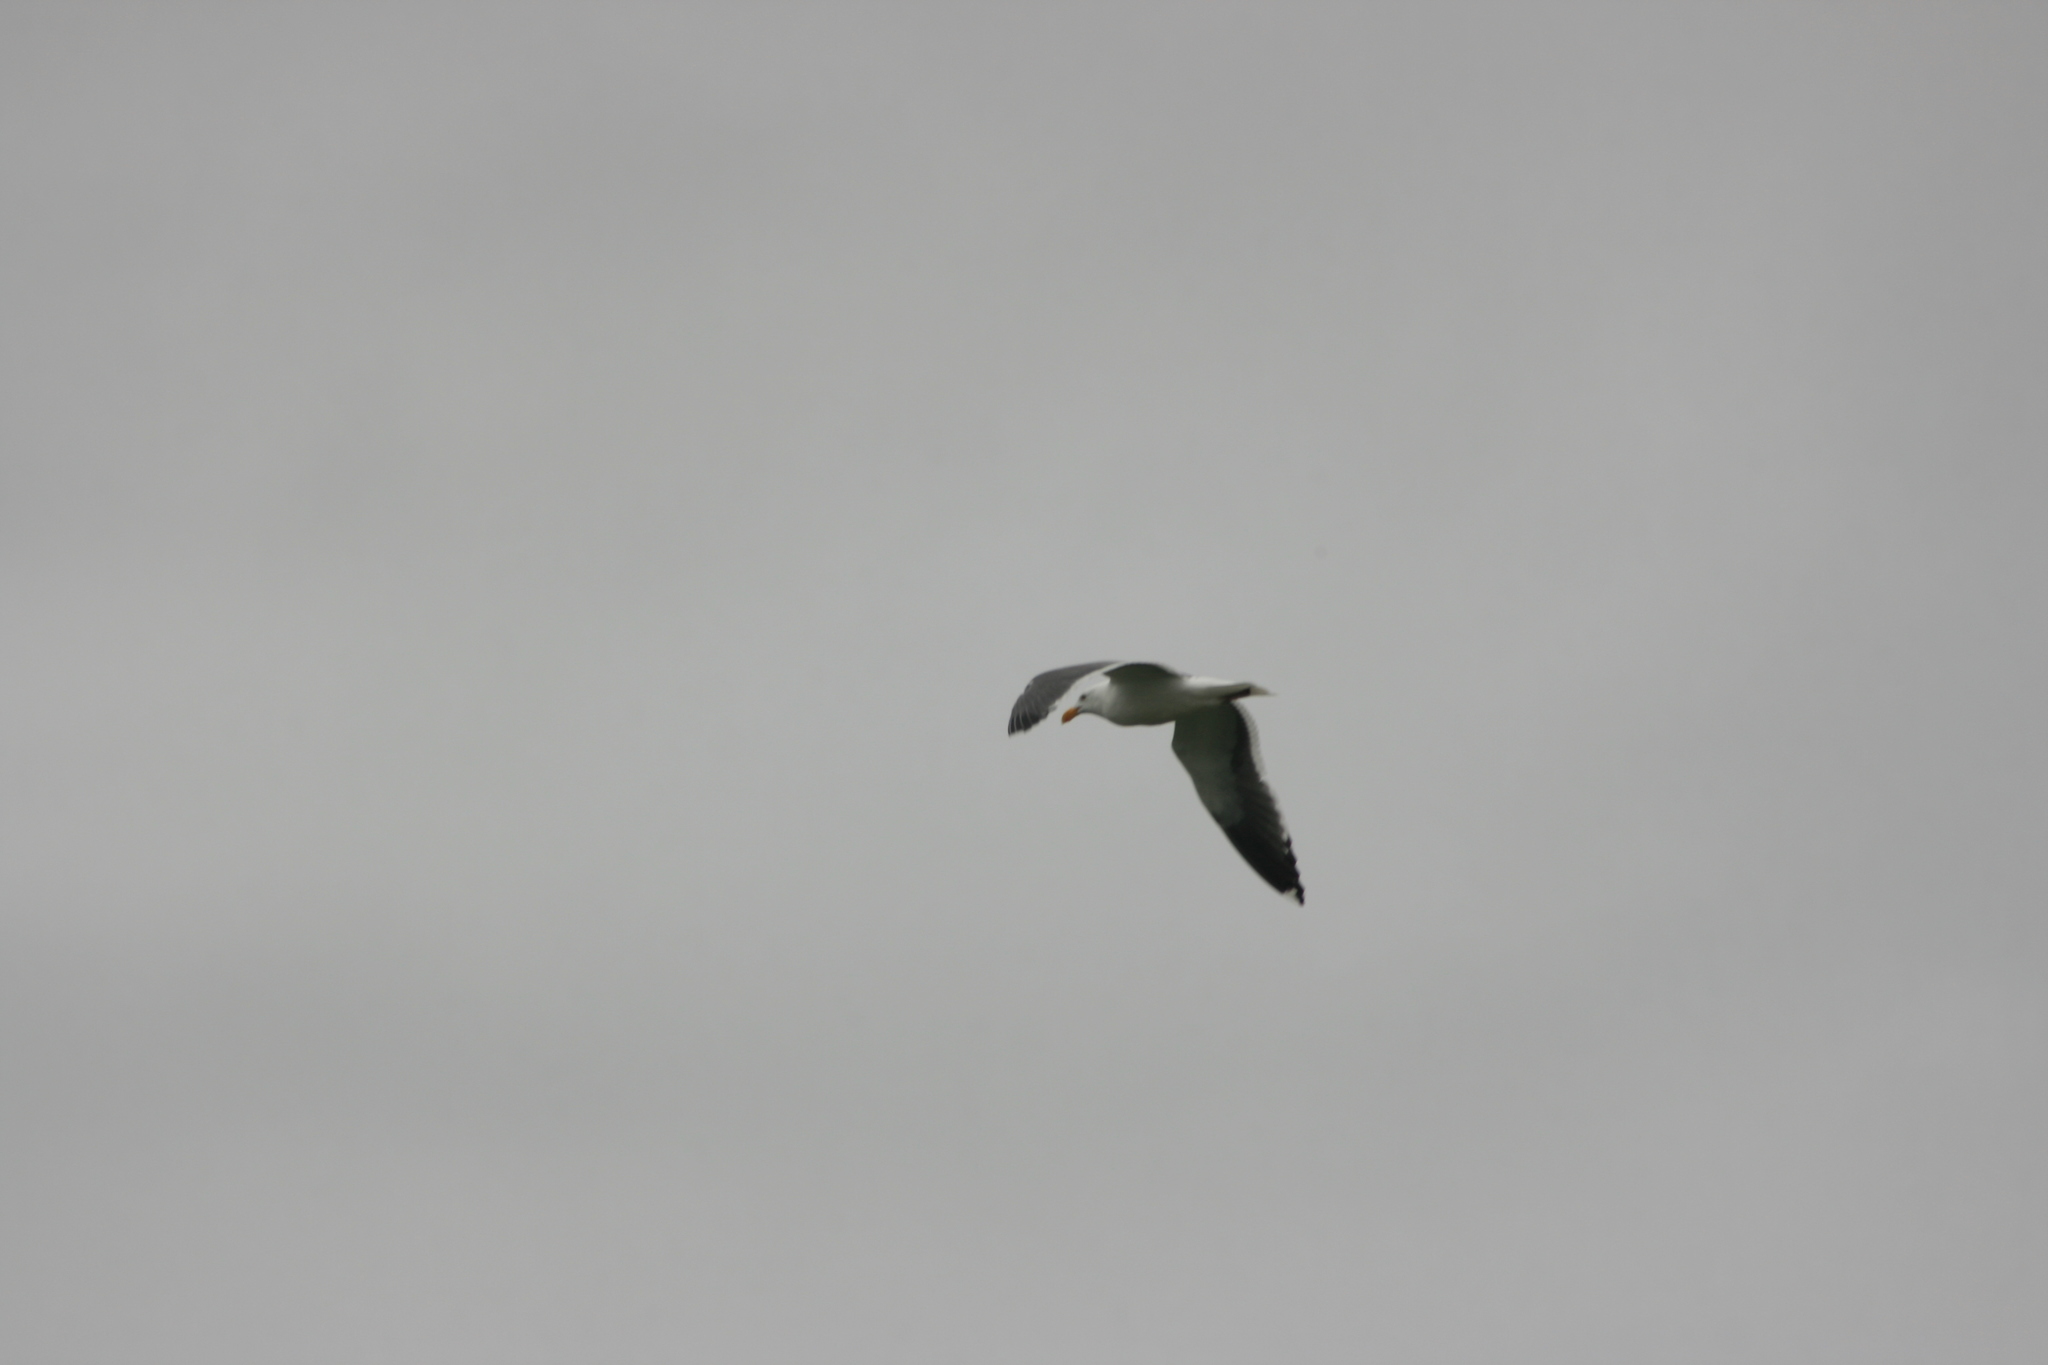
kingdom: Animalia
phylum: Chordata
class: Aves
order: Charadriiformes
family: Laridae
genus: Larus
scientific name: Larus occidentalis
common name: Western gull
